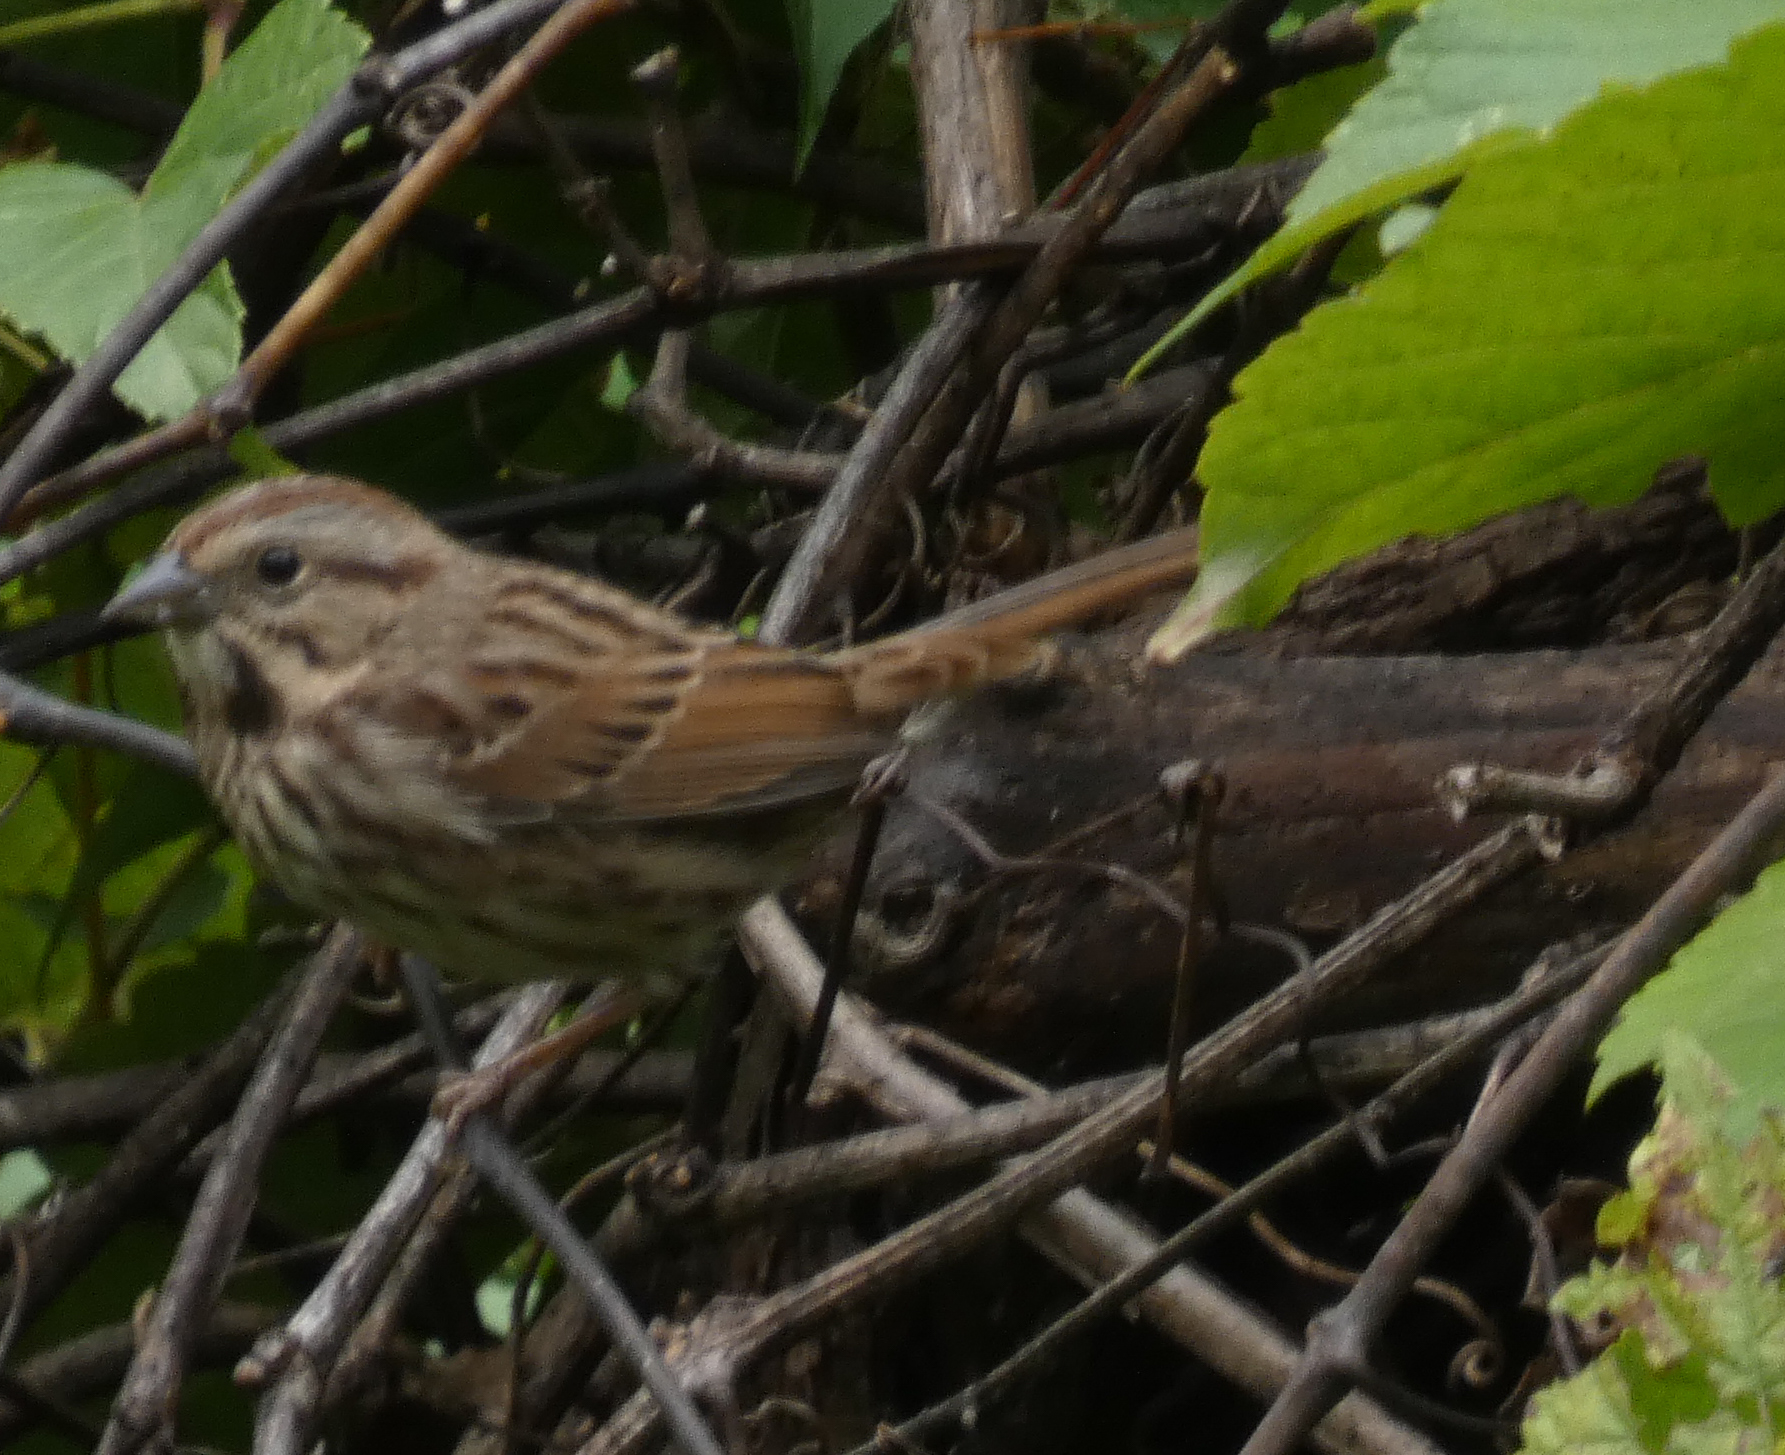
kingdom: Animalia
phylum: Chordata
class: Aves
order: Passeriformes
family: Passerellidae
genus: Melospiza
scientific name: Melospiza melodia
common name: Song sparrow
